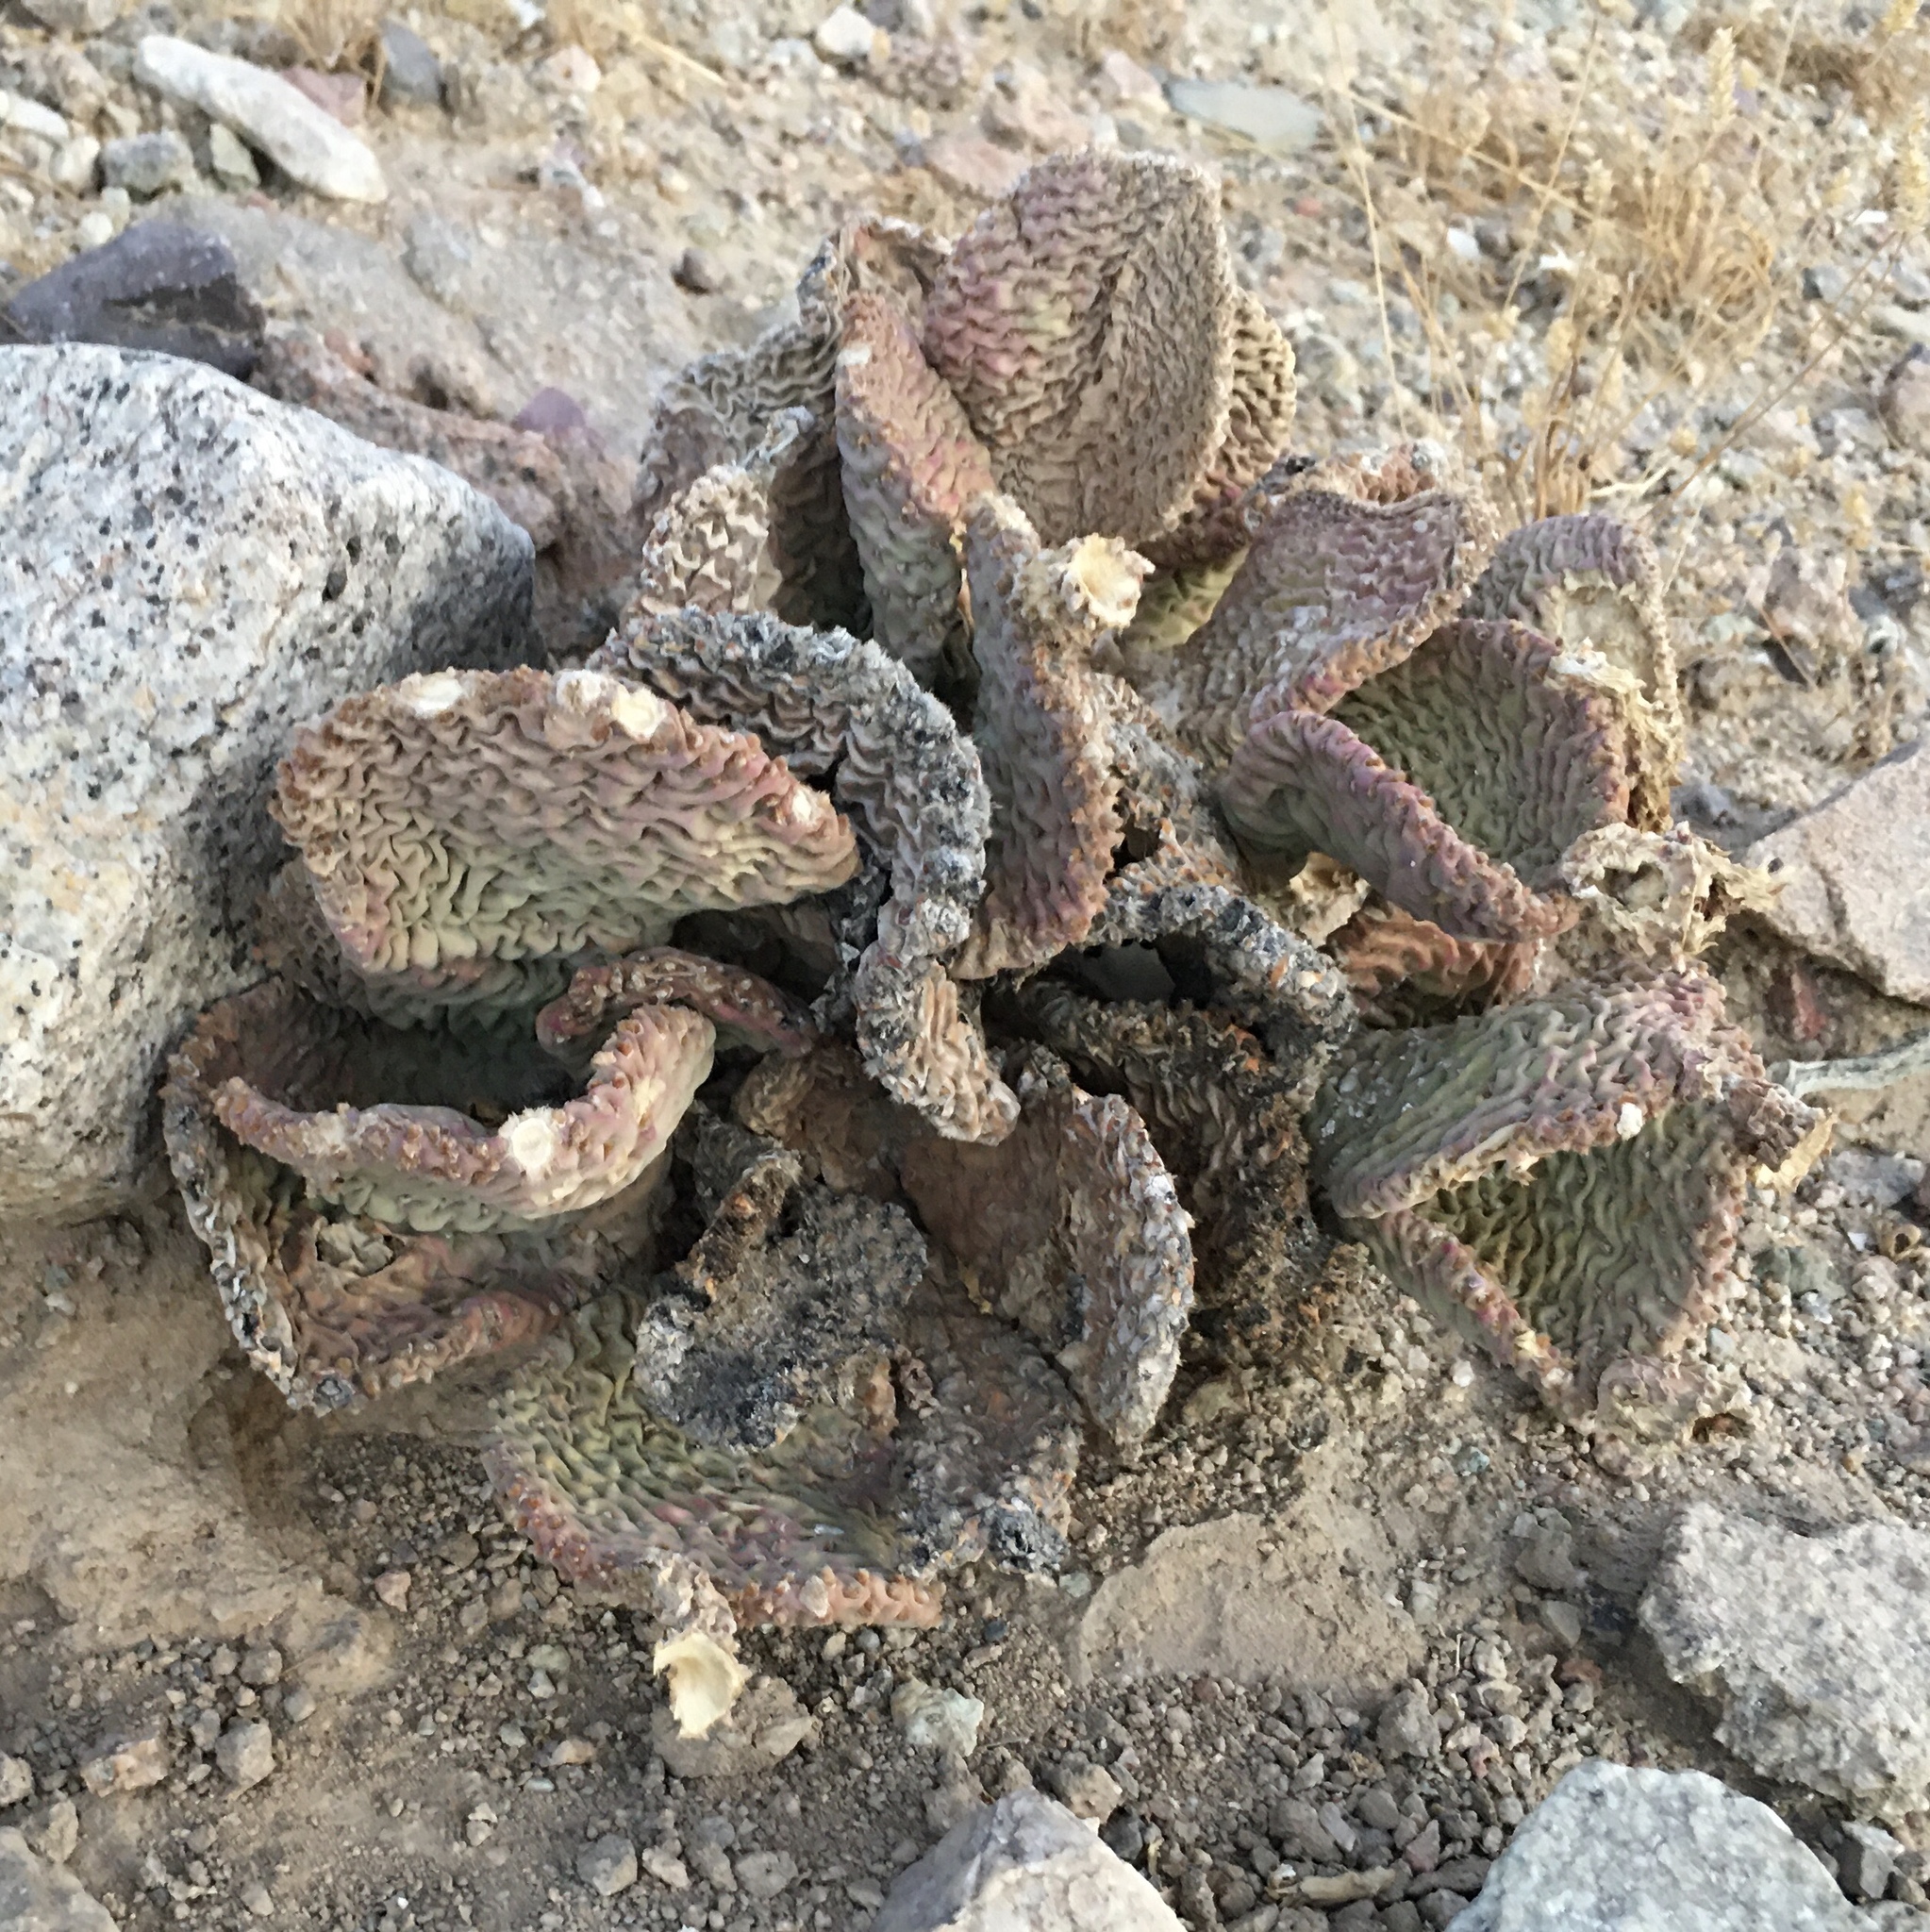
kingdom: Plantae
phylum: Tracheophyta
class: Magnoliopsida
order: Caryophyllales
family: Cactaceae
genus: Opuntia
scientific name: Opuntia basilaris
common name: Beavertail prickly-pear
